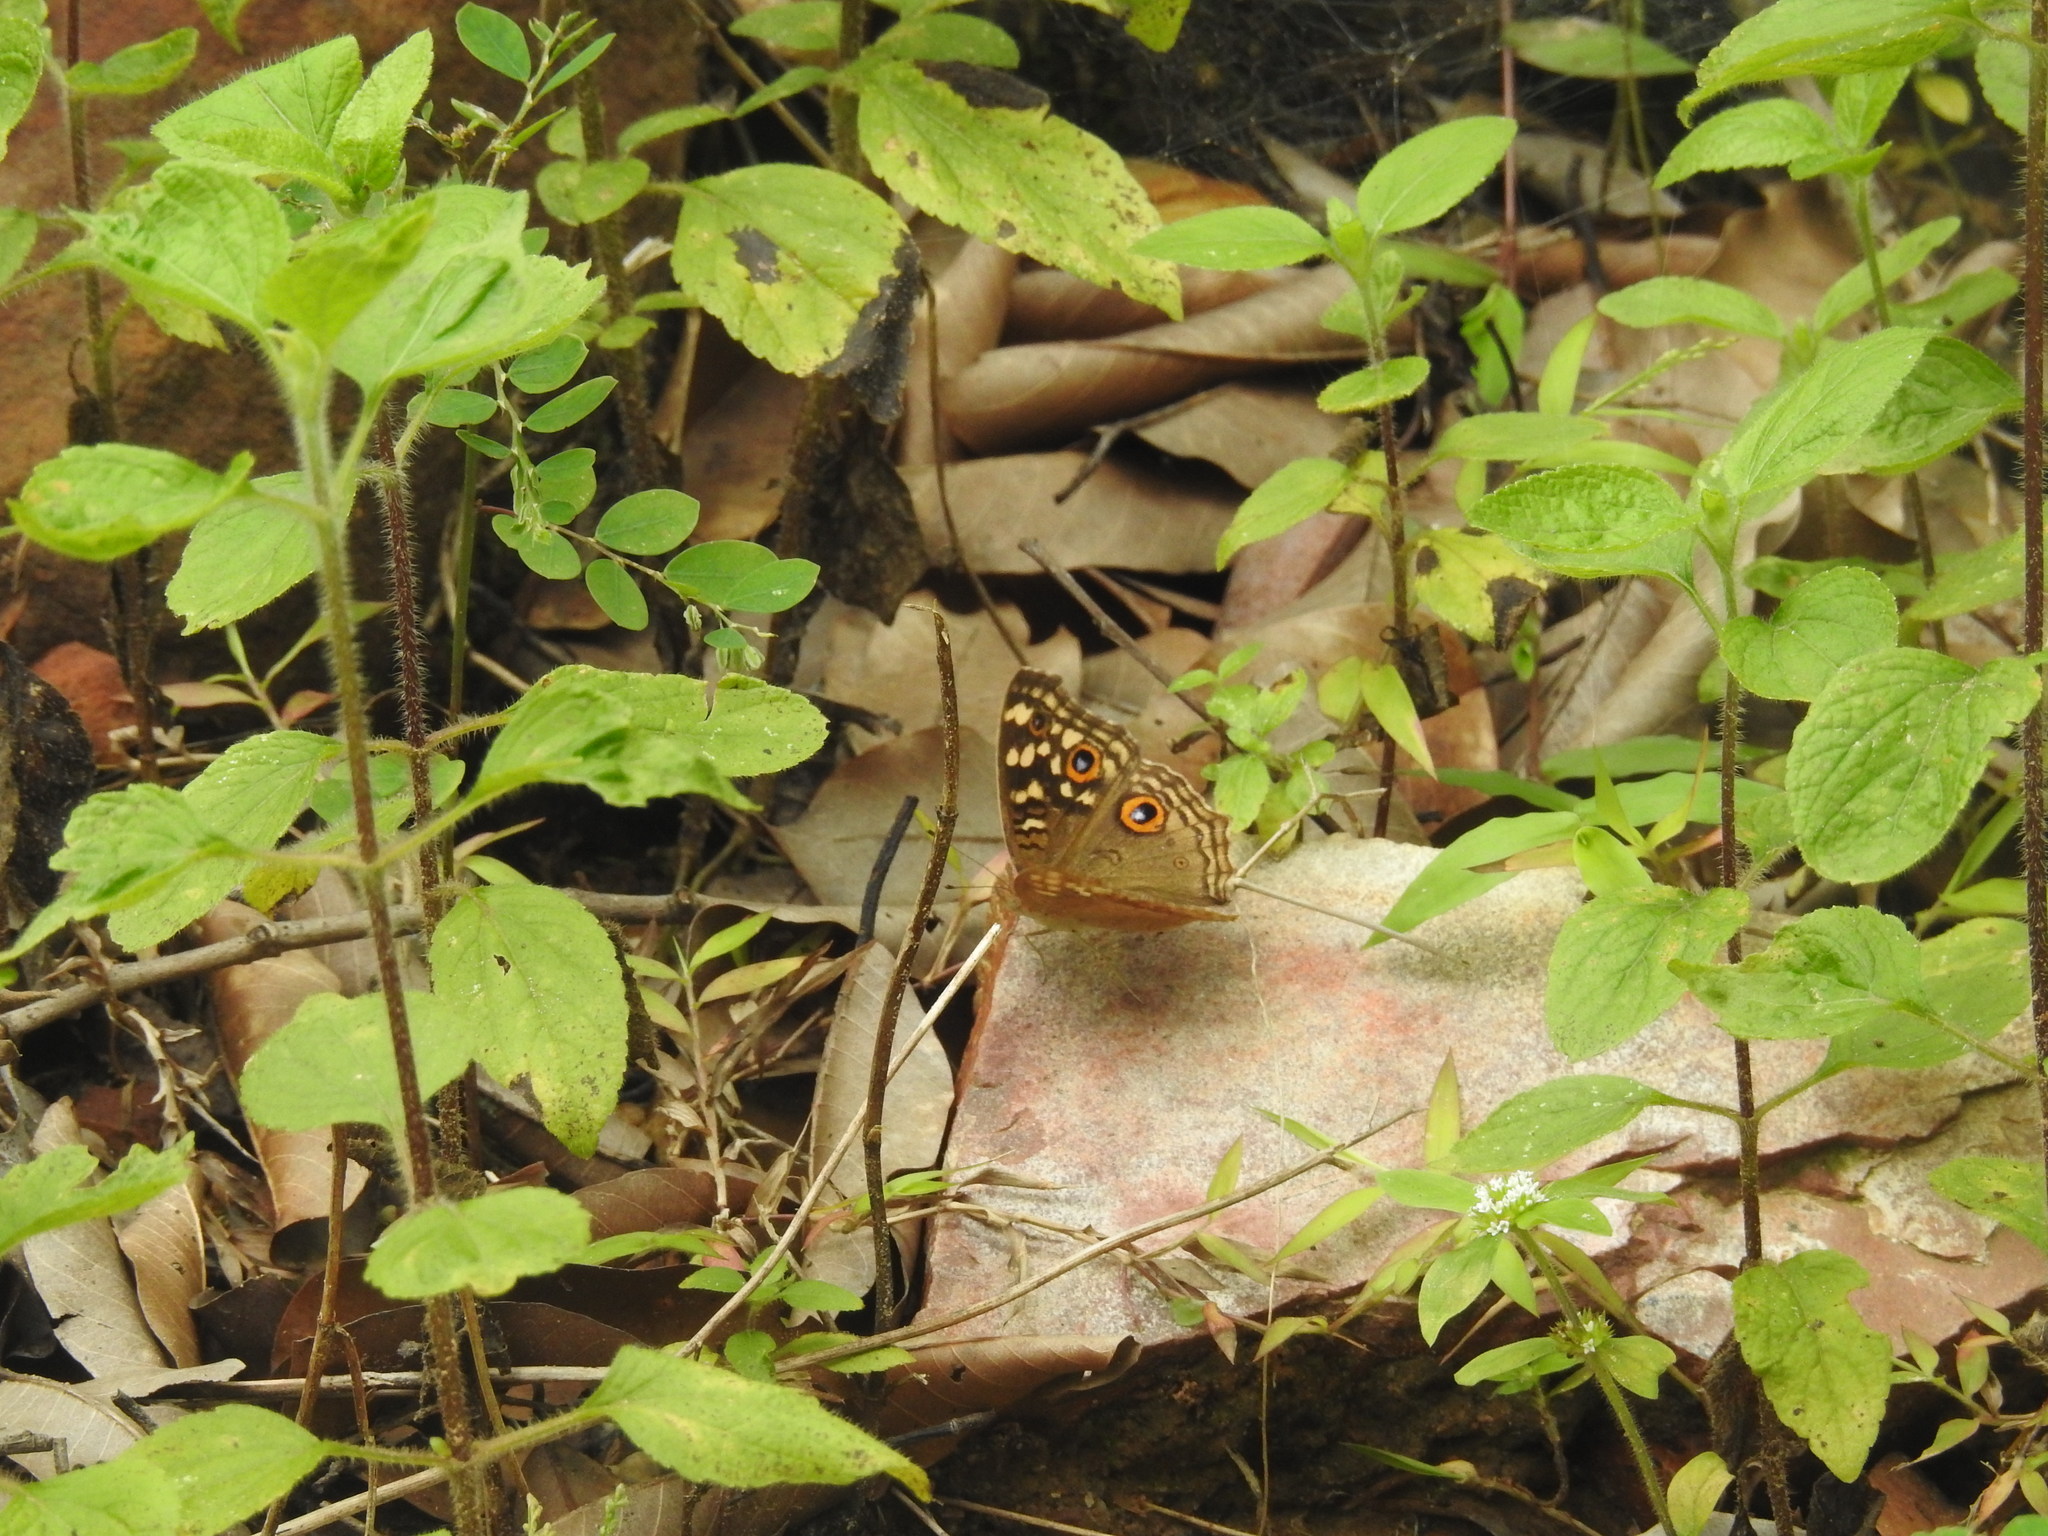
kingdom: Animalia
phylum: Arthropoda
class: Insecta
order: Lepidoptera
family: Nymphalidae
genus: Junonia
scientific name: Junonia lemonias
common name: Lemon pansy
